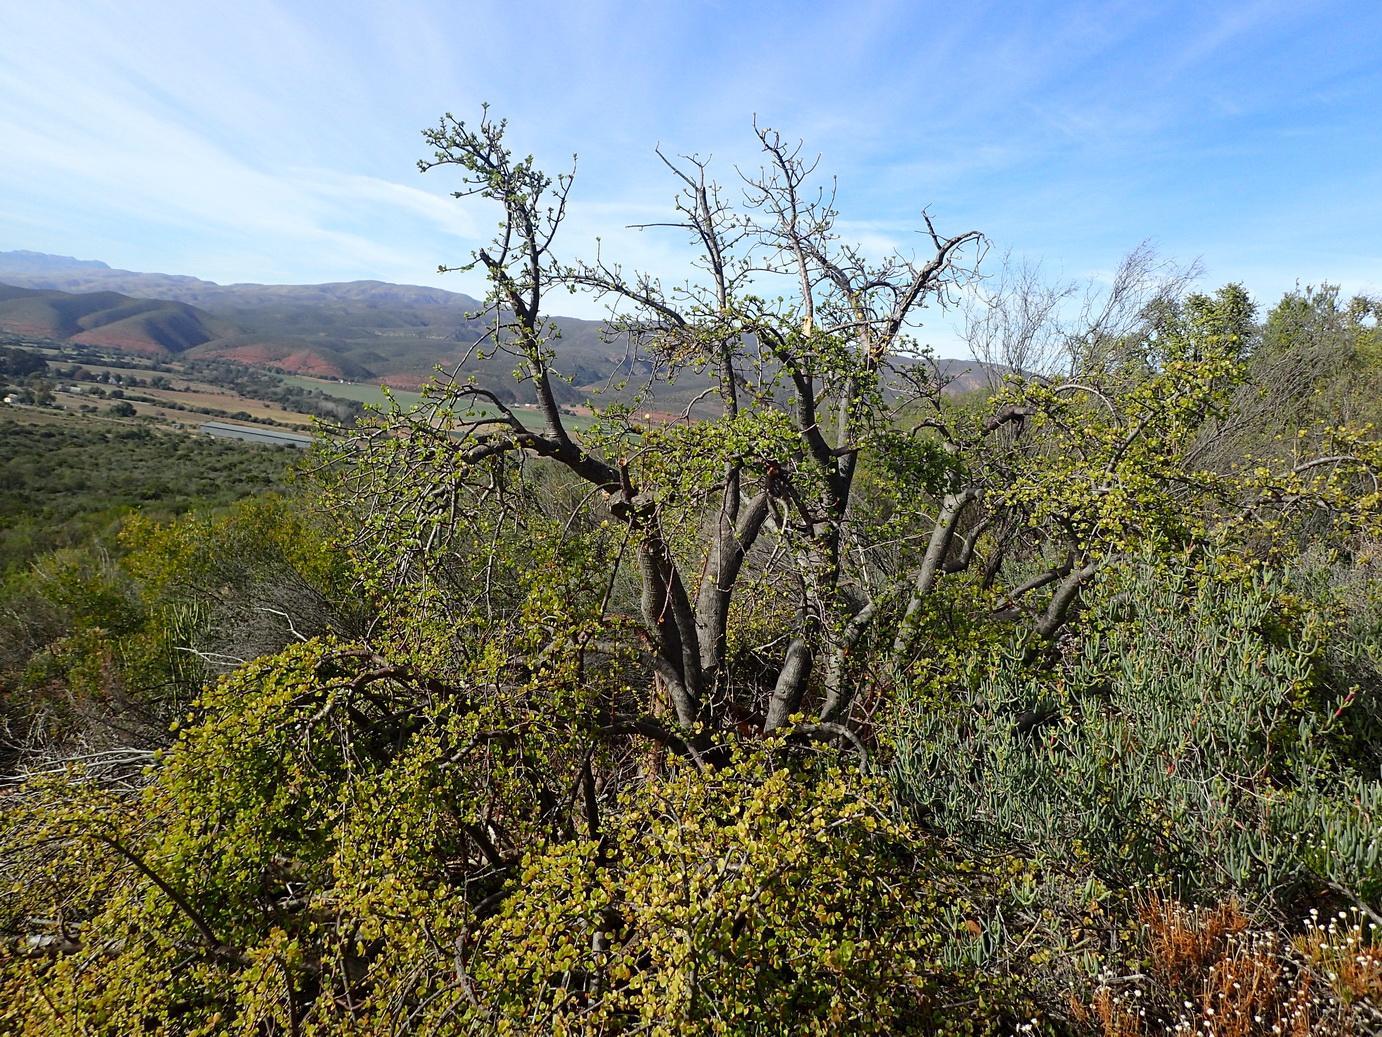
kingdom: Plantae
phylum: Tracheophyta
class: Magnoliopsida
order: Caryophyllales
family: Didiereaceae
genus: Portulacaria
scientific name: Portulacaria afra
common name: Elephant-bush
